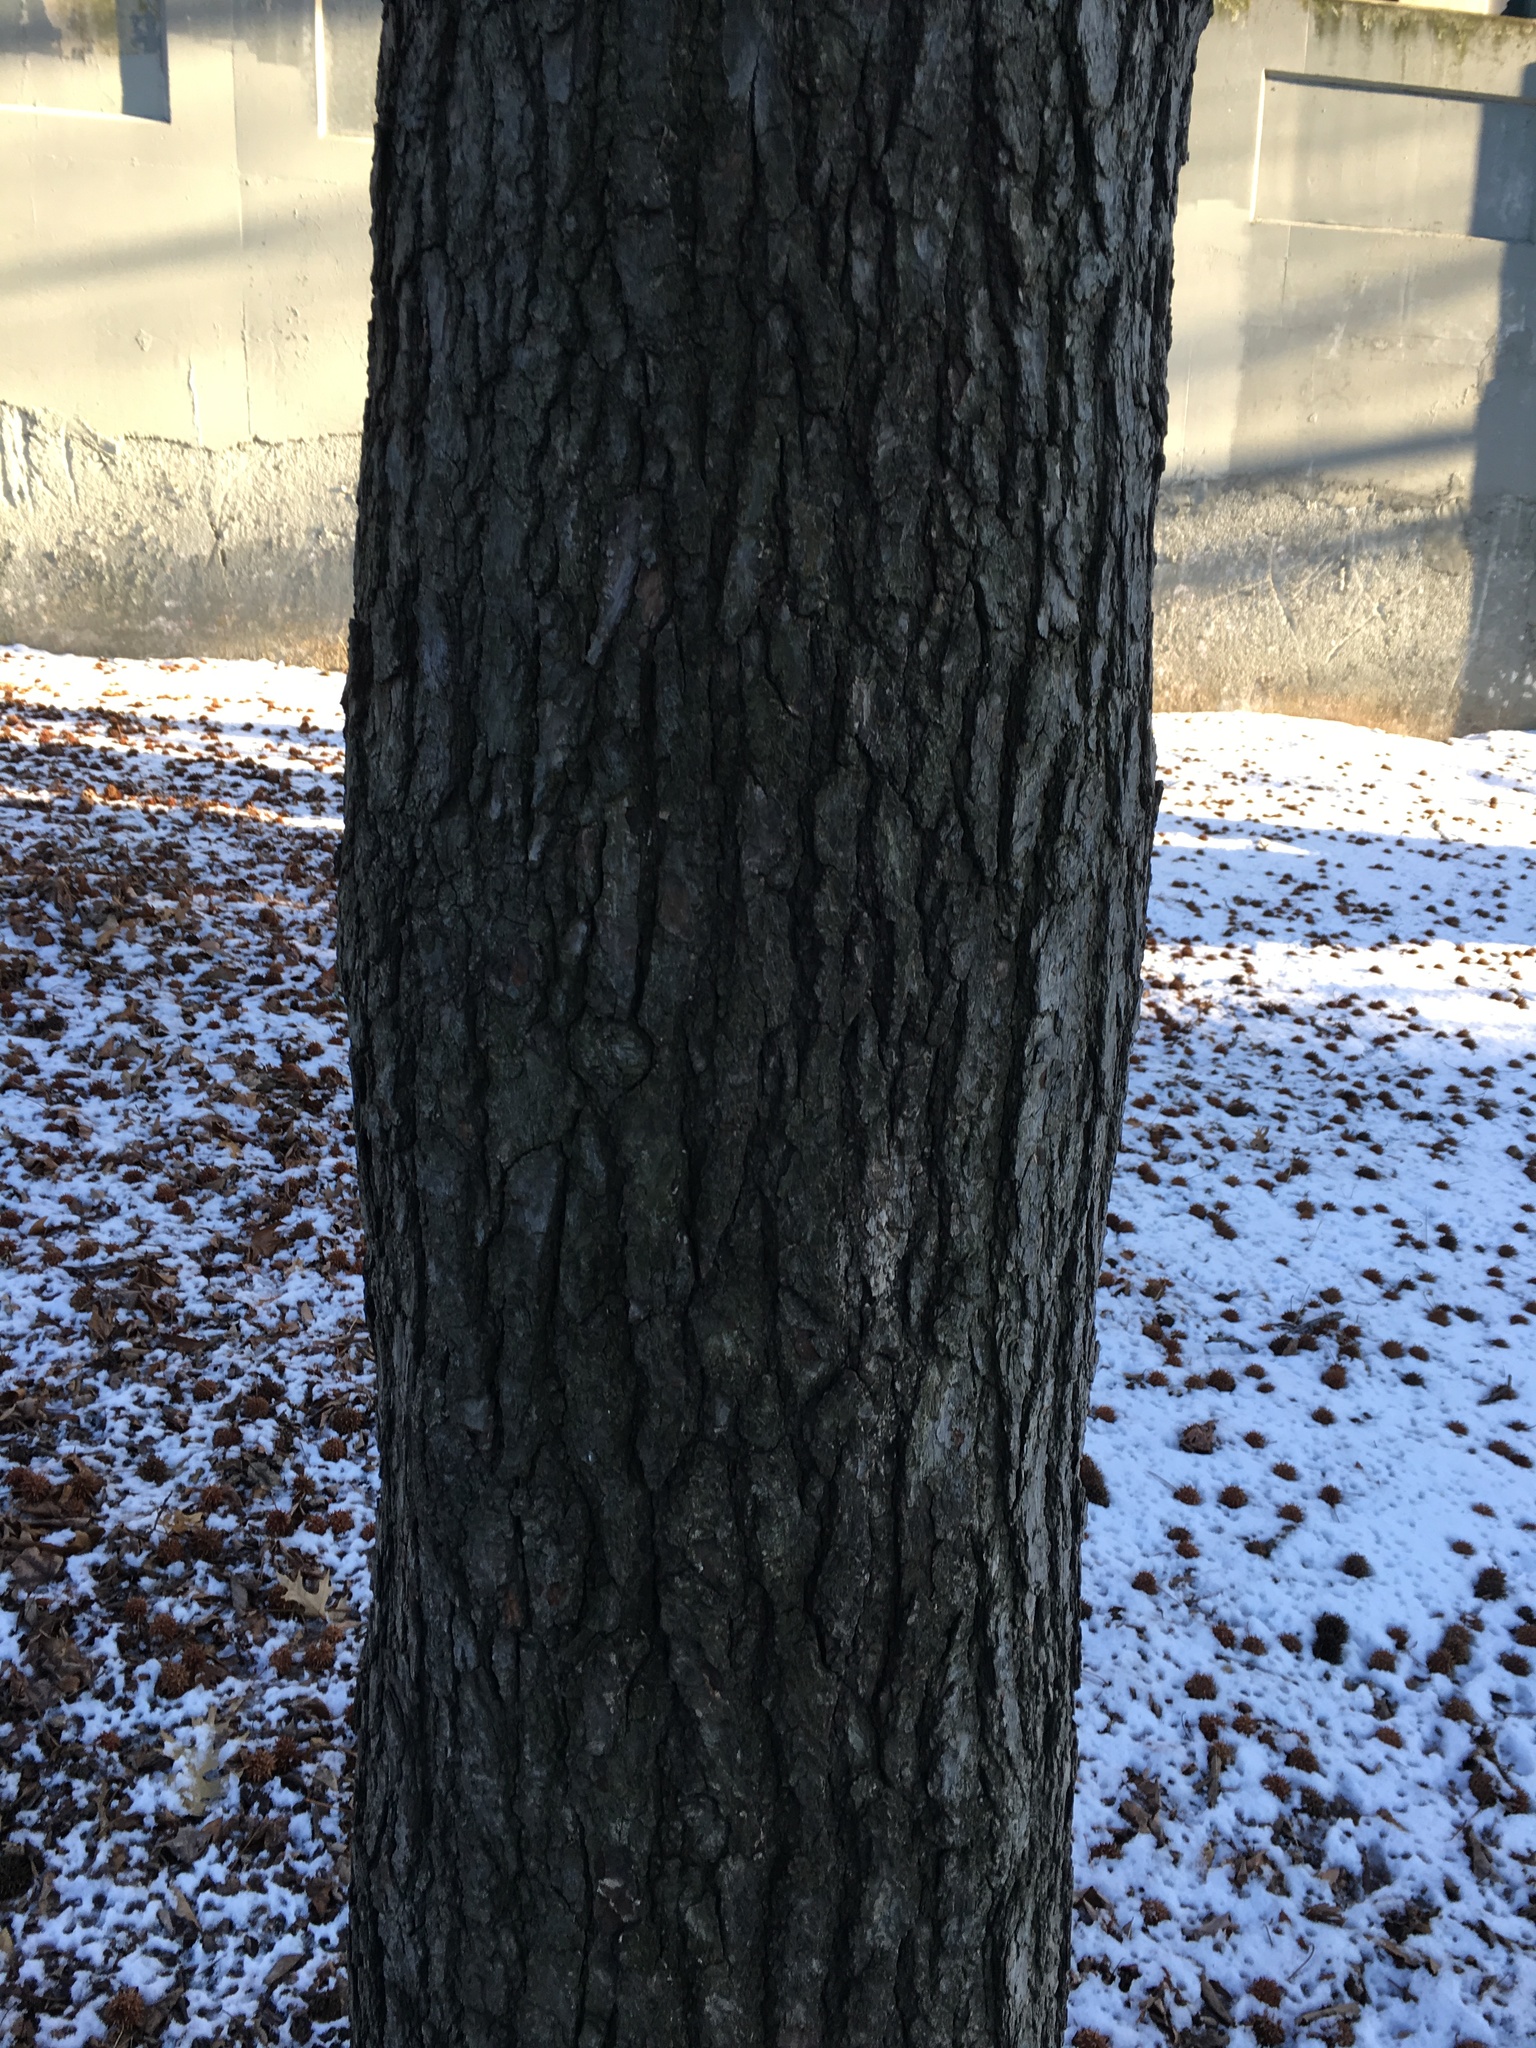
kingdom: Plantae
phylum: Tracheophyta
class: Magnoliopsida
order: Saxifragales
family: Altingiaceae
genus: Liquidambar
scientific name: Liquidambar styraciflua
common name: Sweet gum
